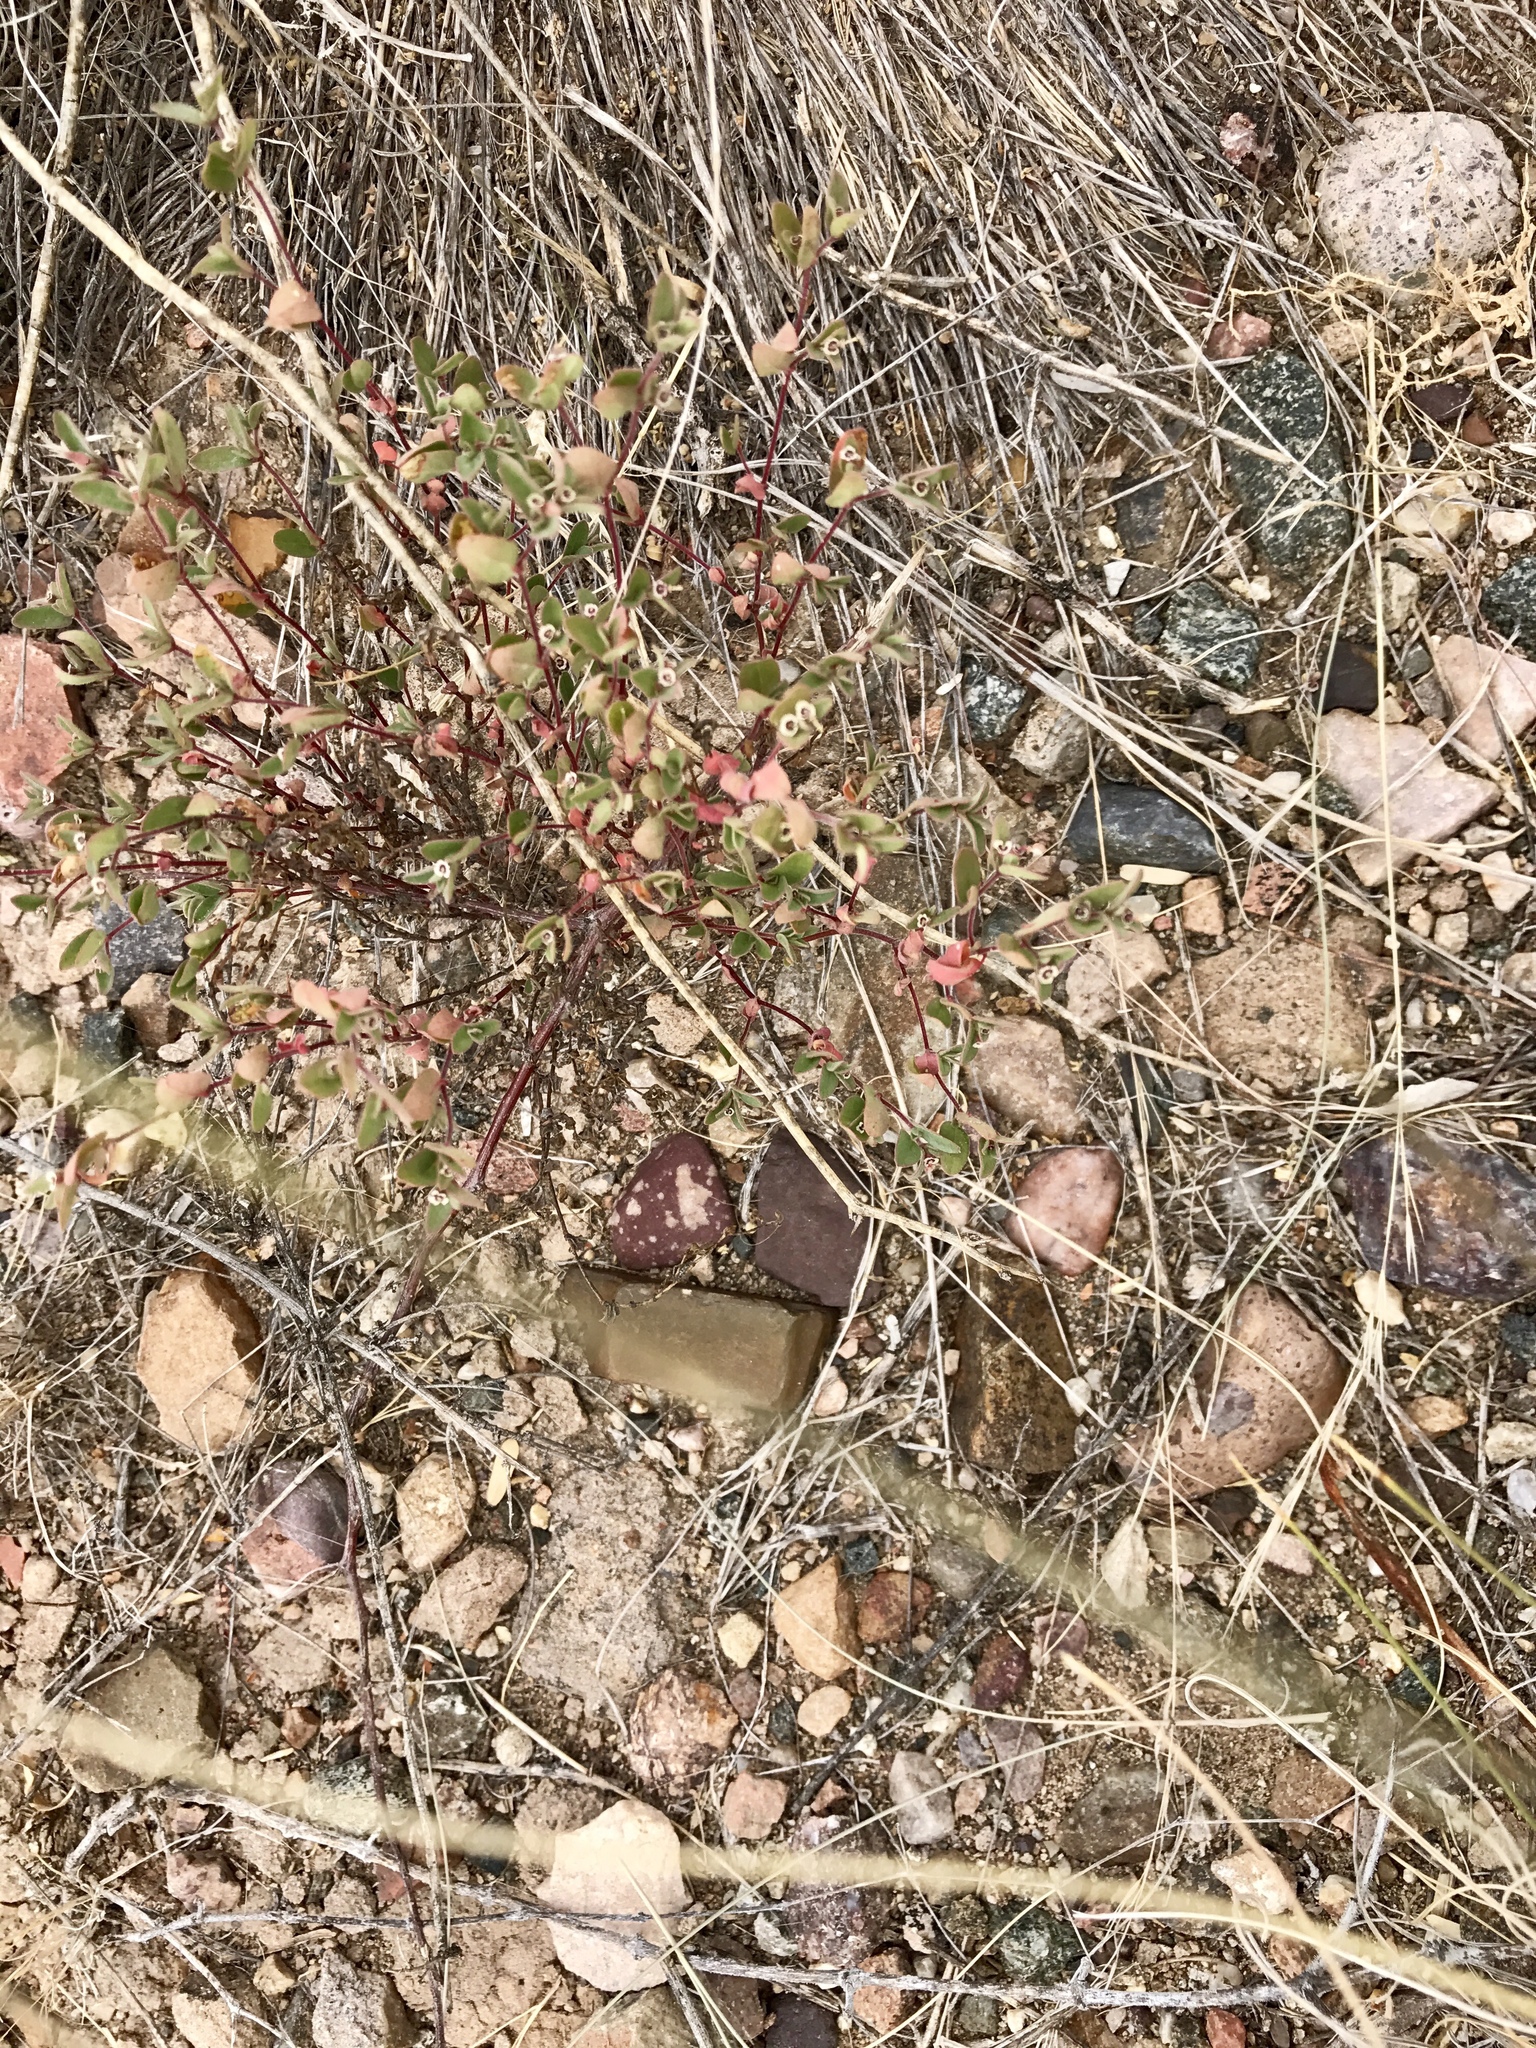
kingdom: Plantae
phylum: Tracheophyta
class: Magnoliopsida
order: Malpighiales
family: Euphorbiaceae
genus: Euphorbia
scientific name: Euphorbia melanadenia
